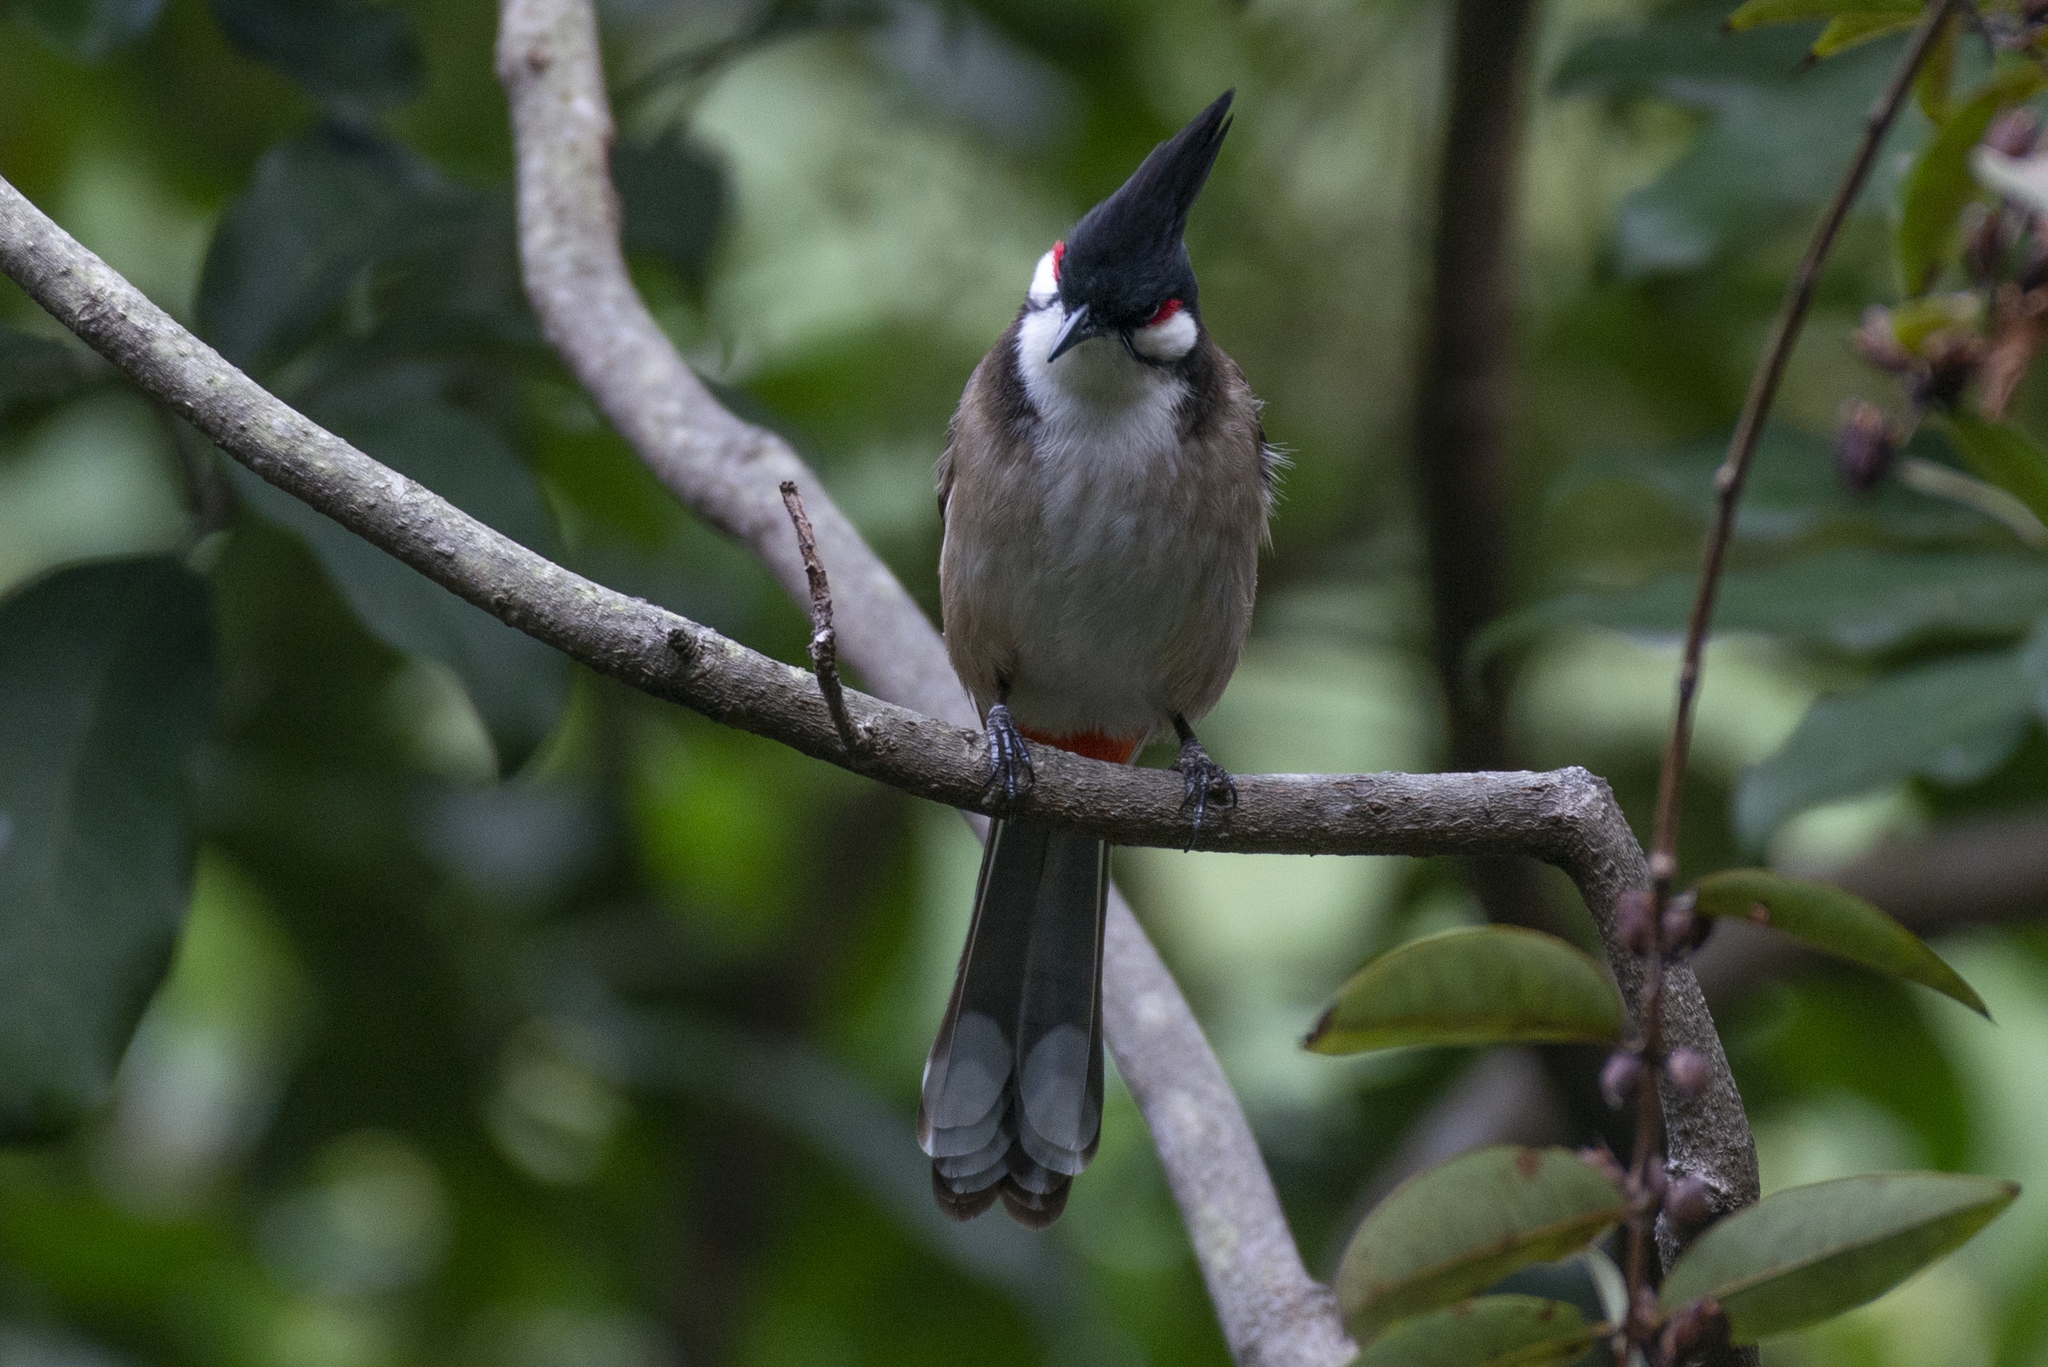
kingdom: Animalia
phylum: Chordata
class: Aves
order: Passeriformes
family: Pycnonotidae
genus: Pycnonotus
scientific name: Pycnonotus jocosus
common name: Red-whiskered bulbul
